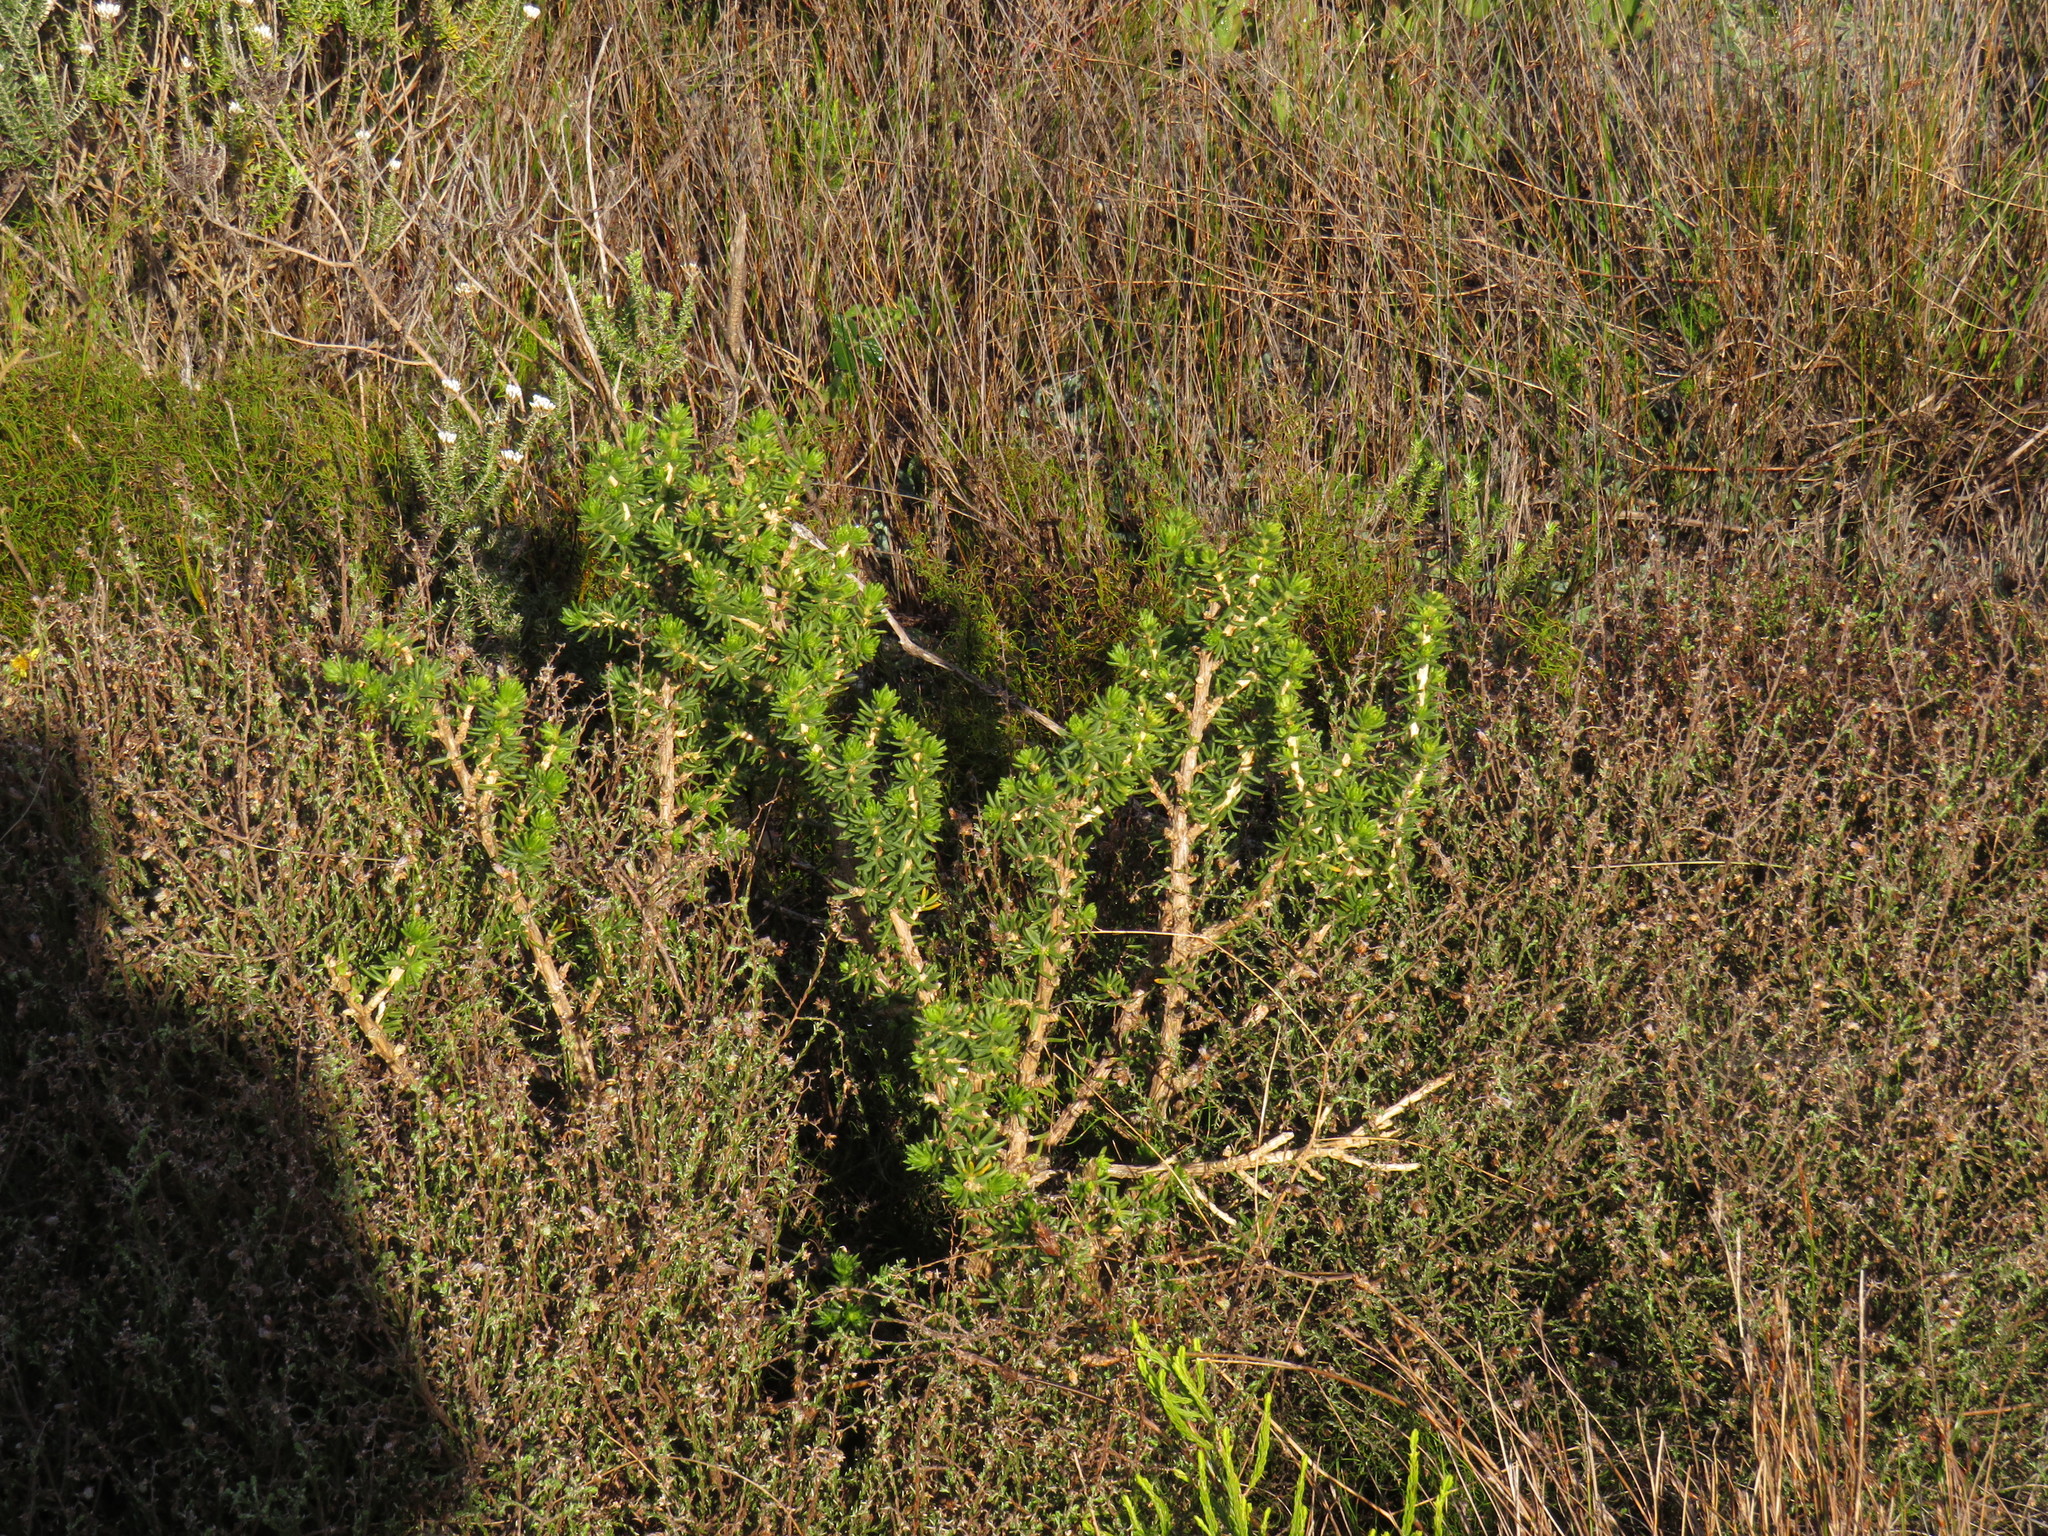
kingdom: Plantae
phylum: Tracheophyta
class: Magnoliopsida
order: Fabales
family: Fabaceae
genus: Aspalathus
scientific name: Aspalathus capensis
